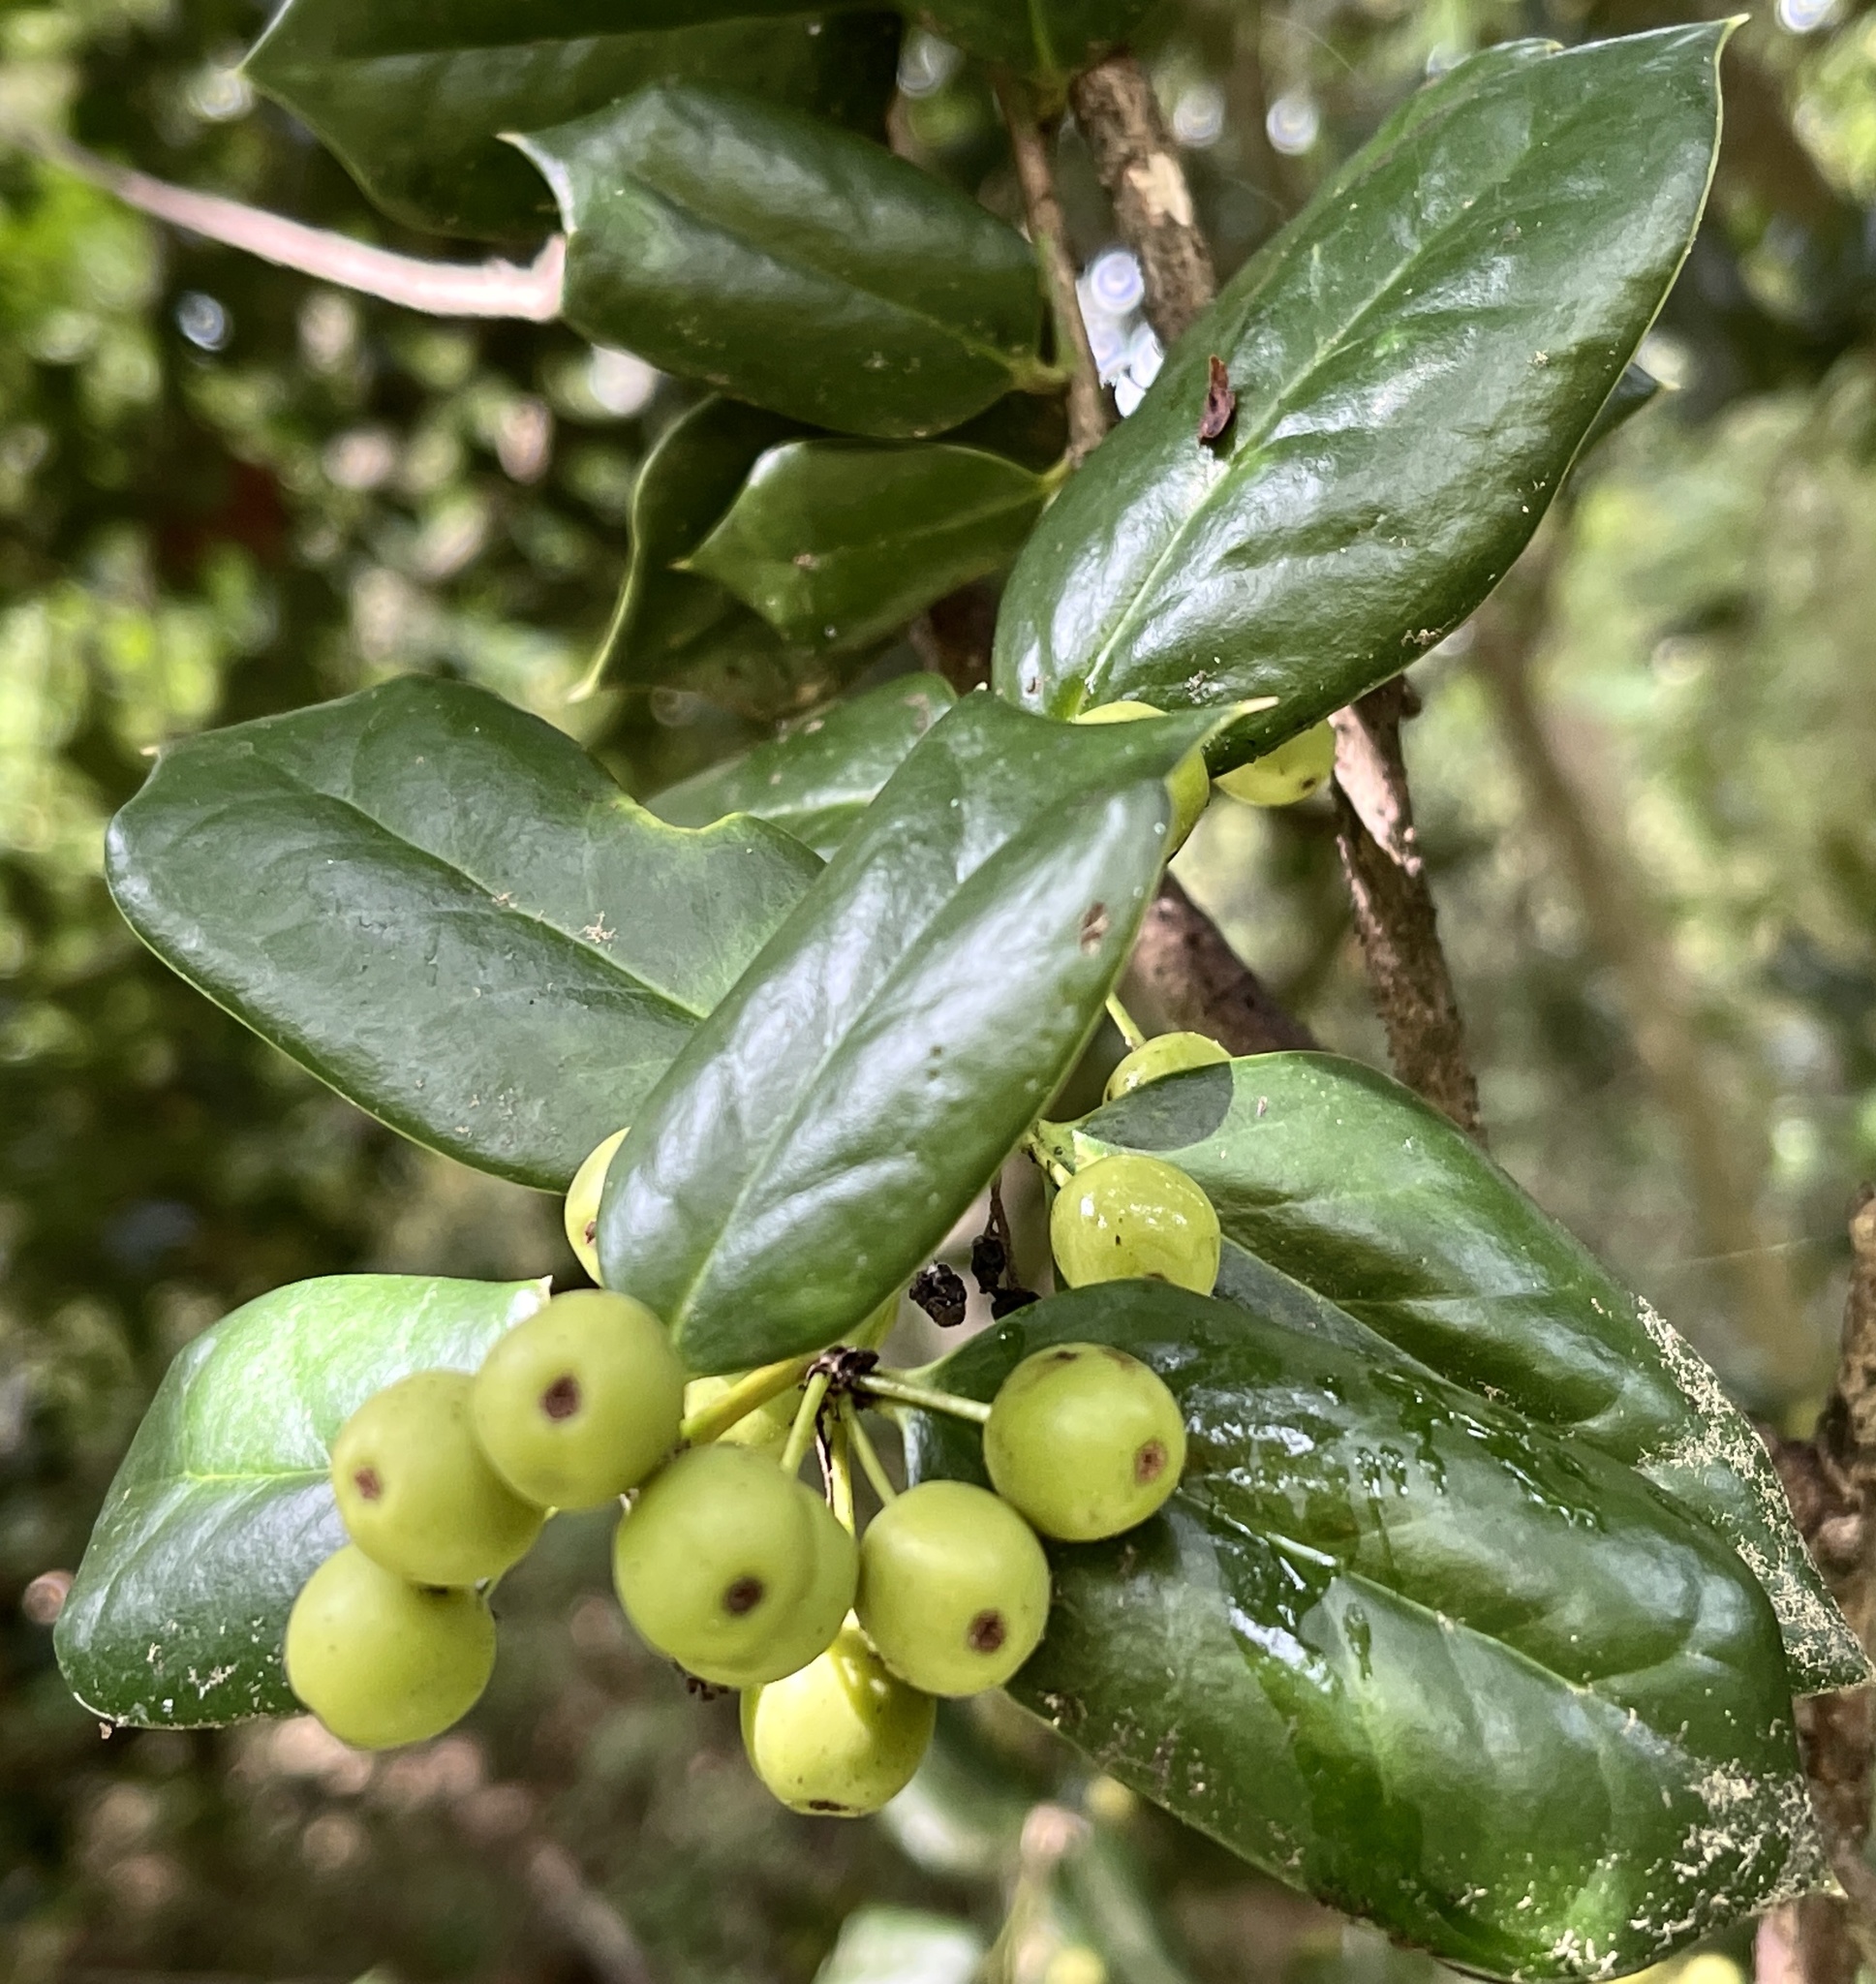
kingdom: Plantae
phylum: Tracheophyta
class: Magnoliopsida
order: Aquifoliales
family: Aquifoliaceae
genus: Ilex
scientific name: Ilex cornuta
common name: Chinese holly
